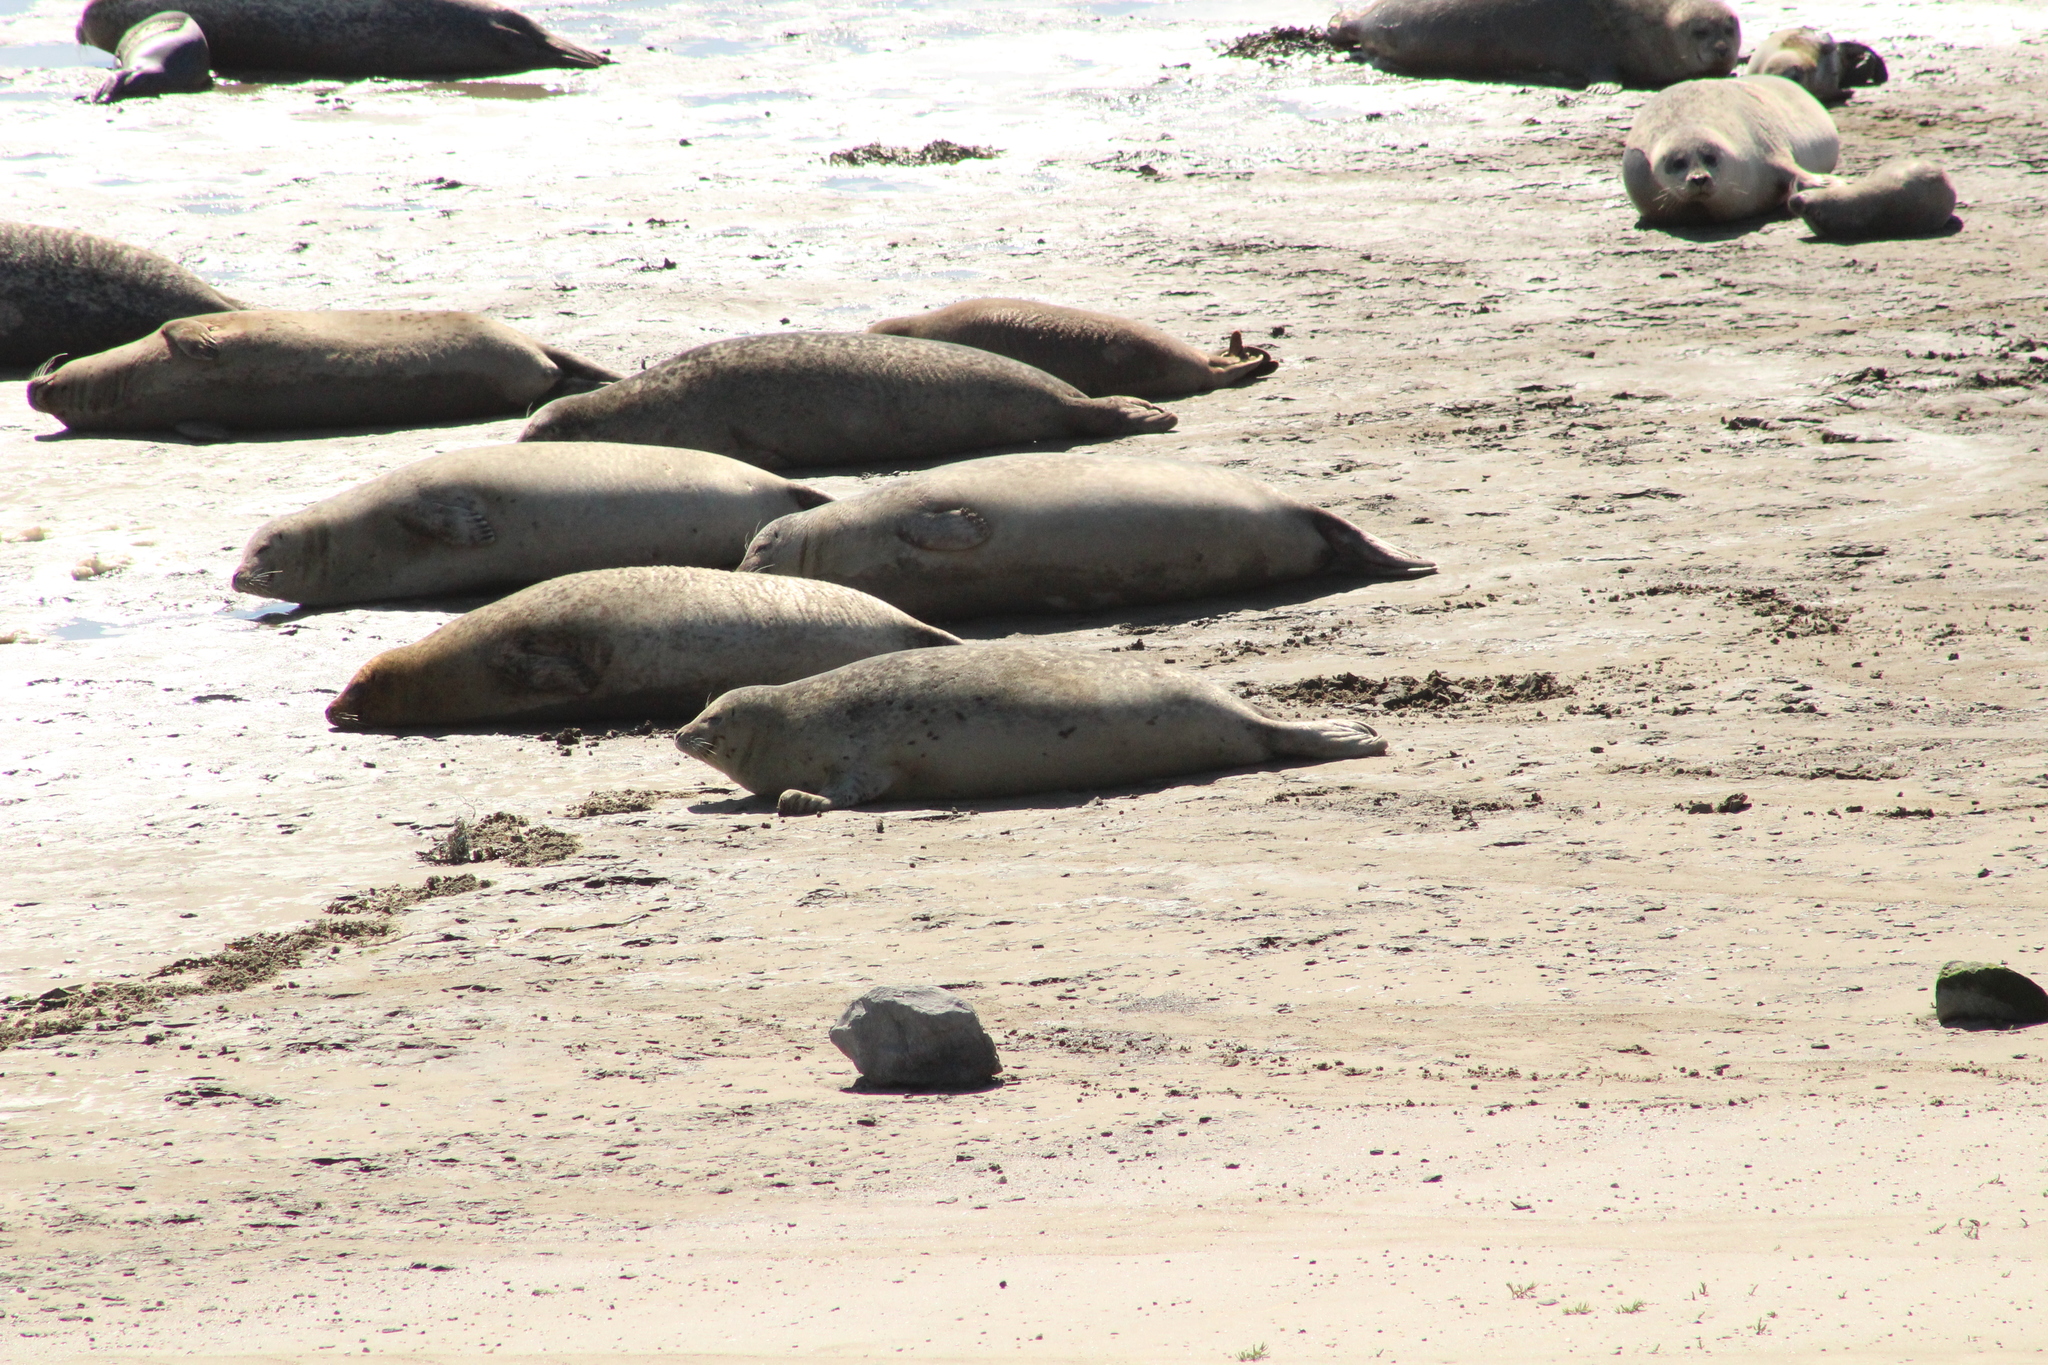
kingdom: Animalia
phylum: Chordata
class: Mammalia
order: Carnivora
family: Phocidae
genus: Phoca
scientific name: Phoca vitulina
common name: Harbor seal
